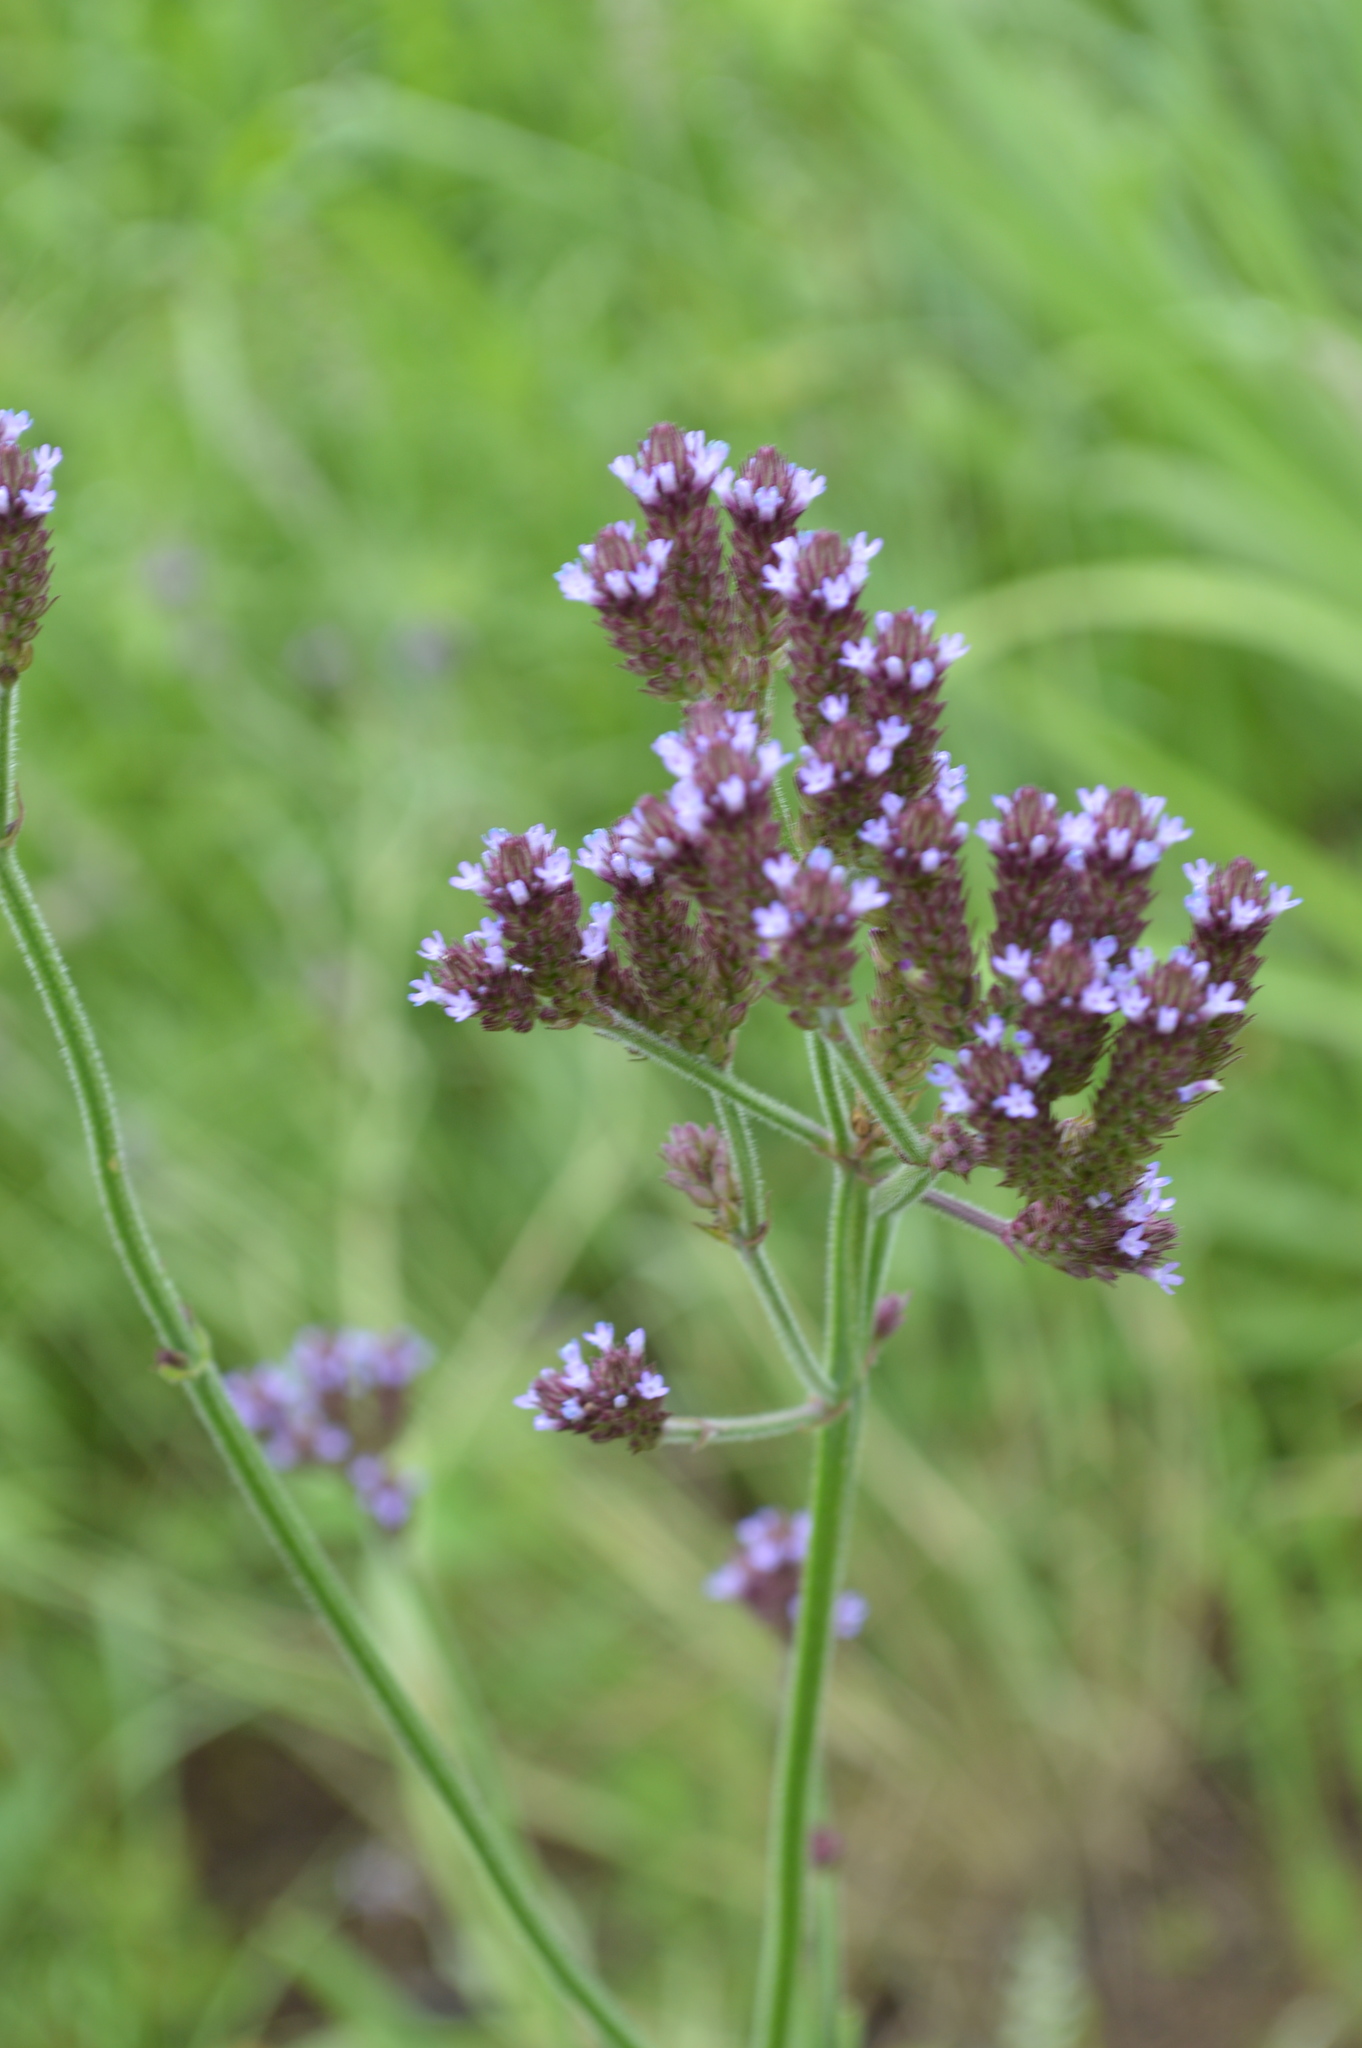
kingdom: Plantae
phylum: Tracheophyta
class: Magnoliopsida
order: Lamiales
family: Verbenaceae
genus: Verbena
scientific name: Verbena bonariensis
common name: Purpletop vervain
